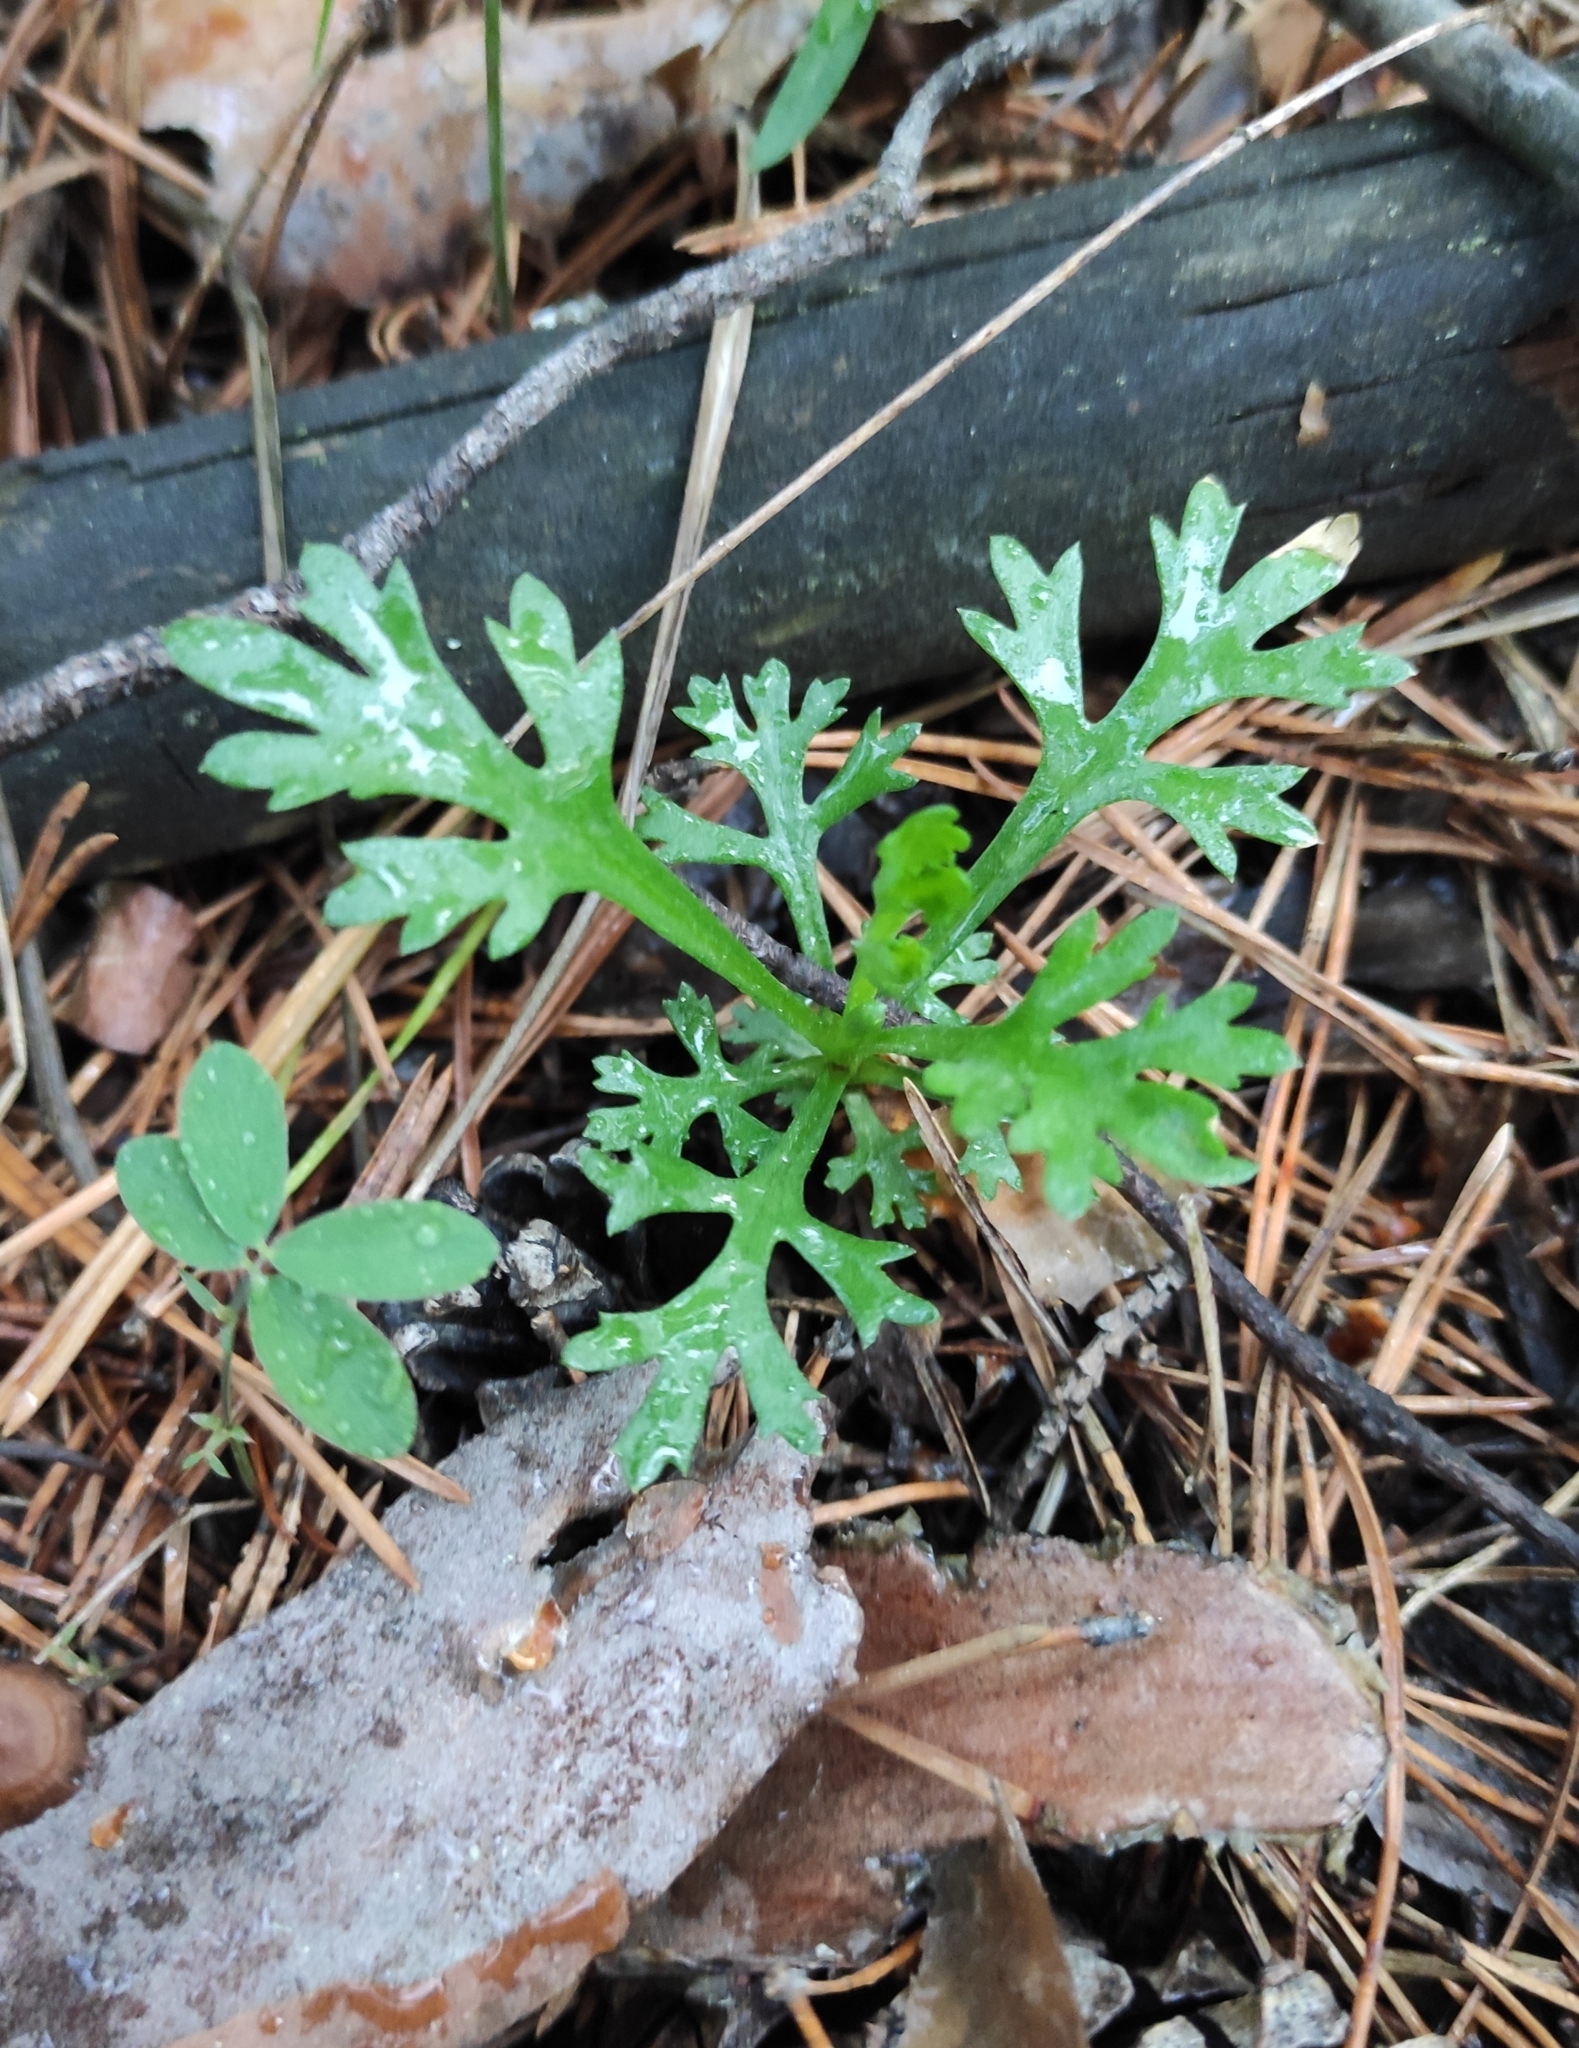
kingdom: Plantae
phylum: Tracheophyta
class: Magnoliopsida
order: Asterales
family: Asteraceae
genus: Chrysanthemum
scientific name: Chrysanthemum zawadzkii
